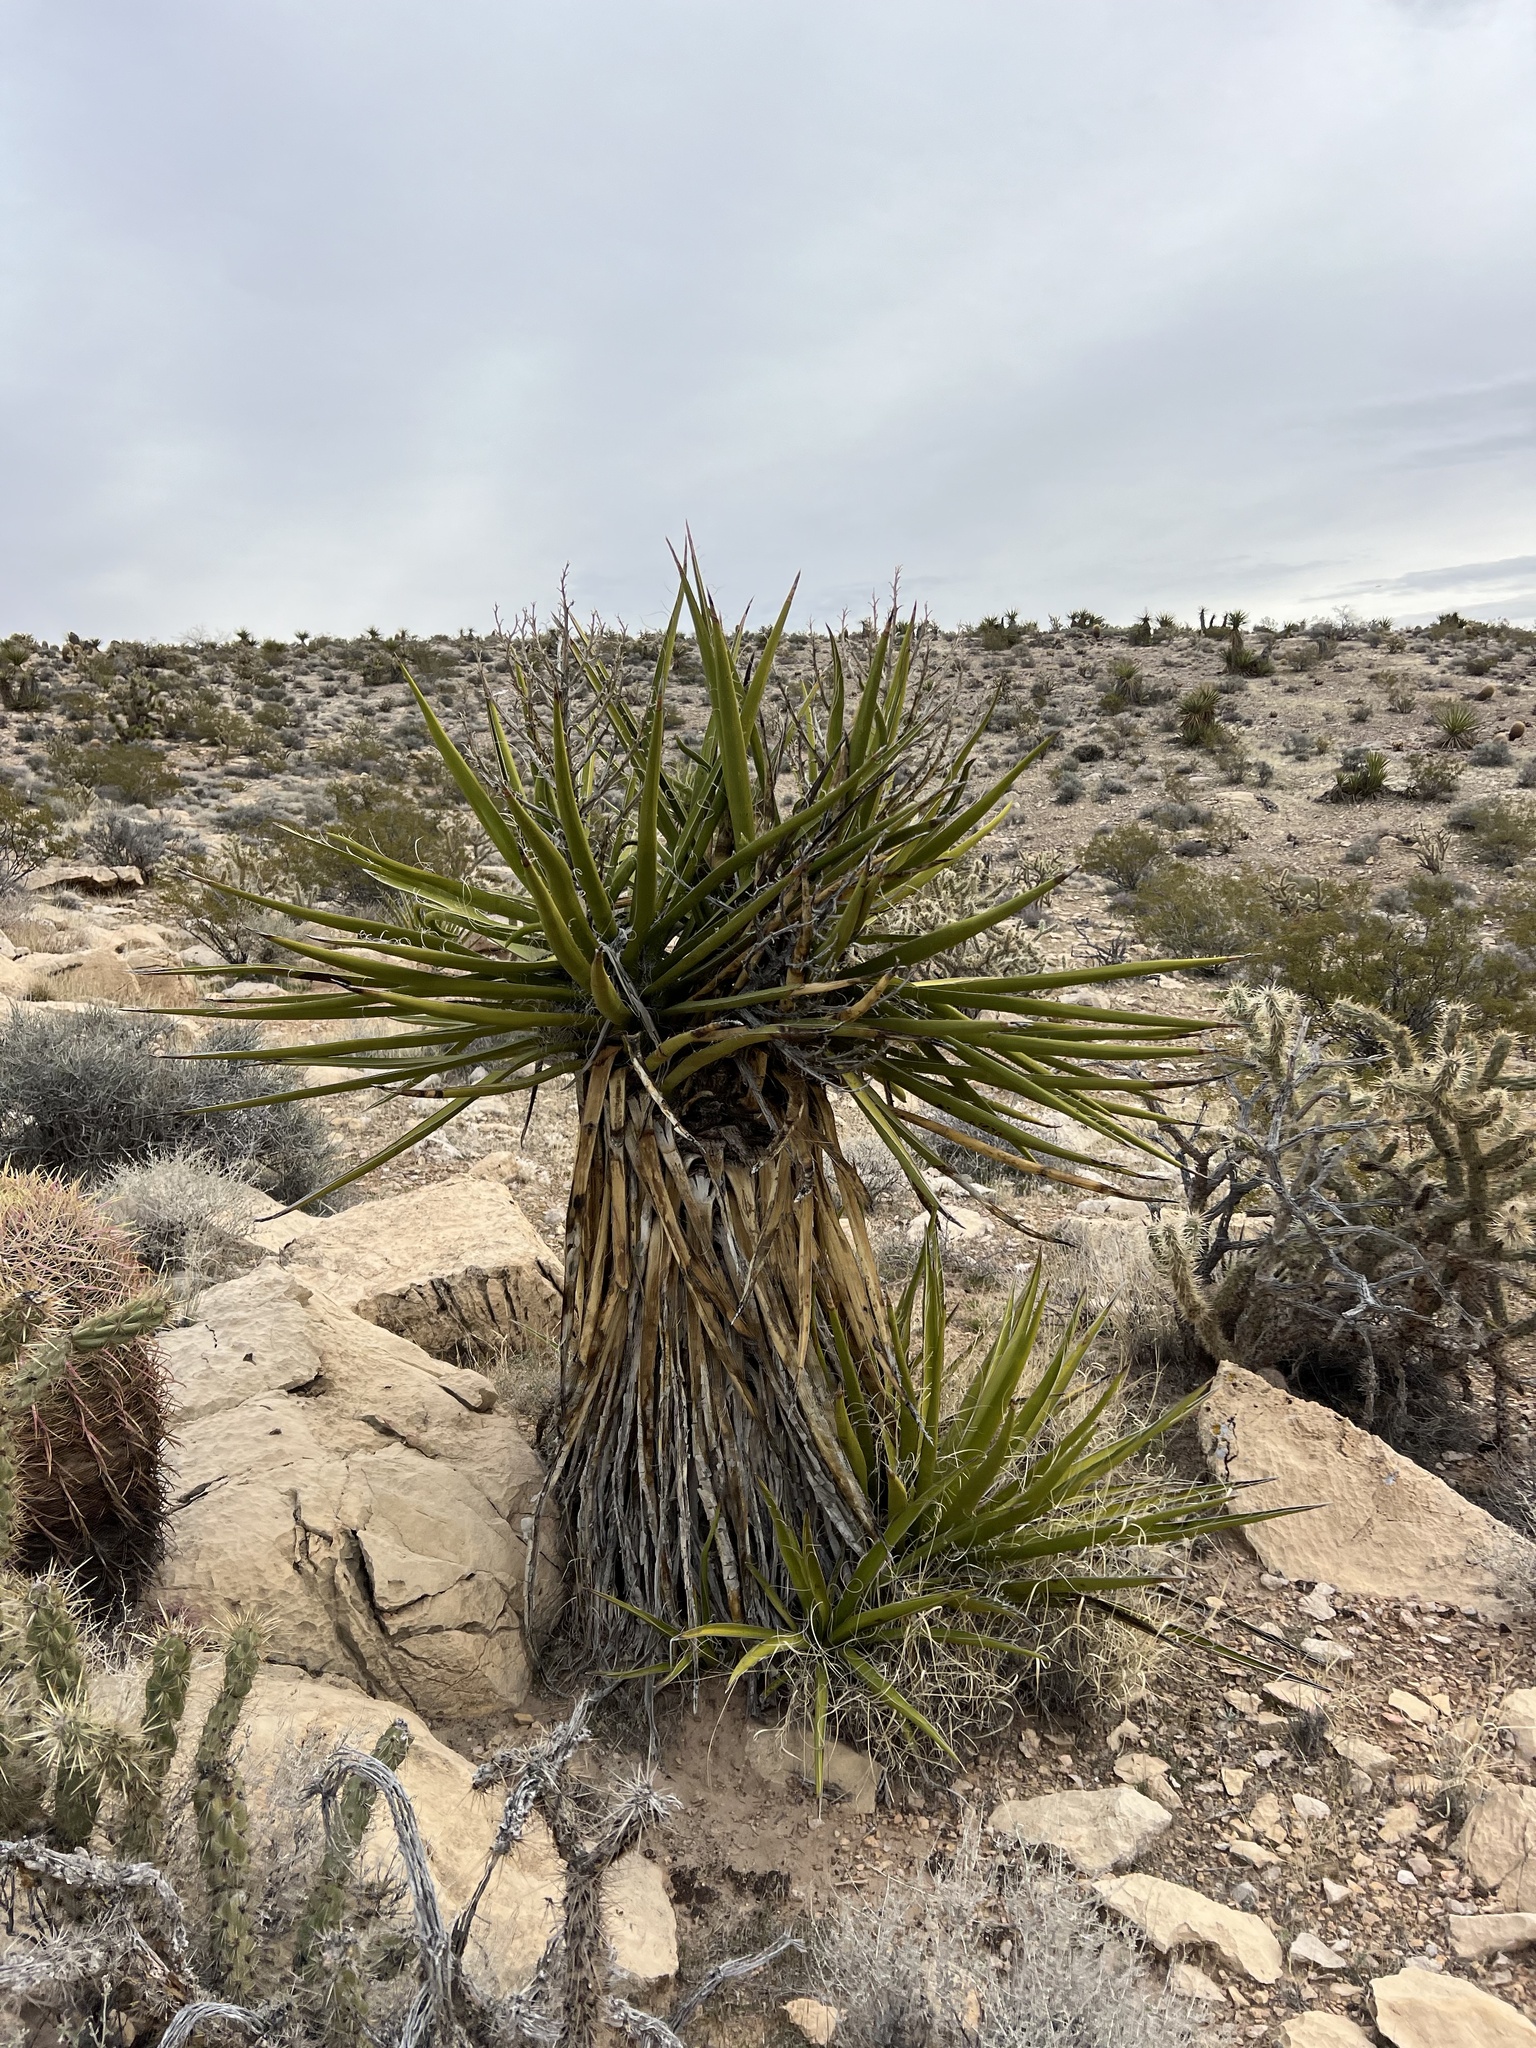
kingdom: Plantae
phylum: Tracheophyta
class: Liliopsida
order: Asparagales
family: Asparagaceae
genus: Yucca
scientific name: Yucca schidigera
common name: Mojave yucca
